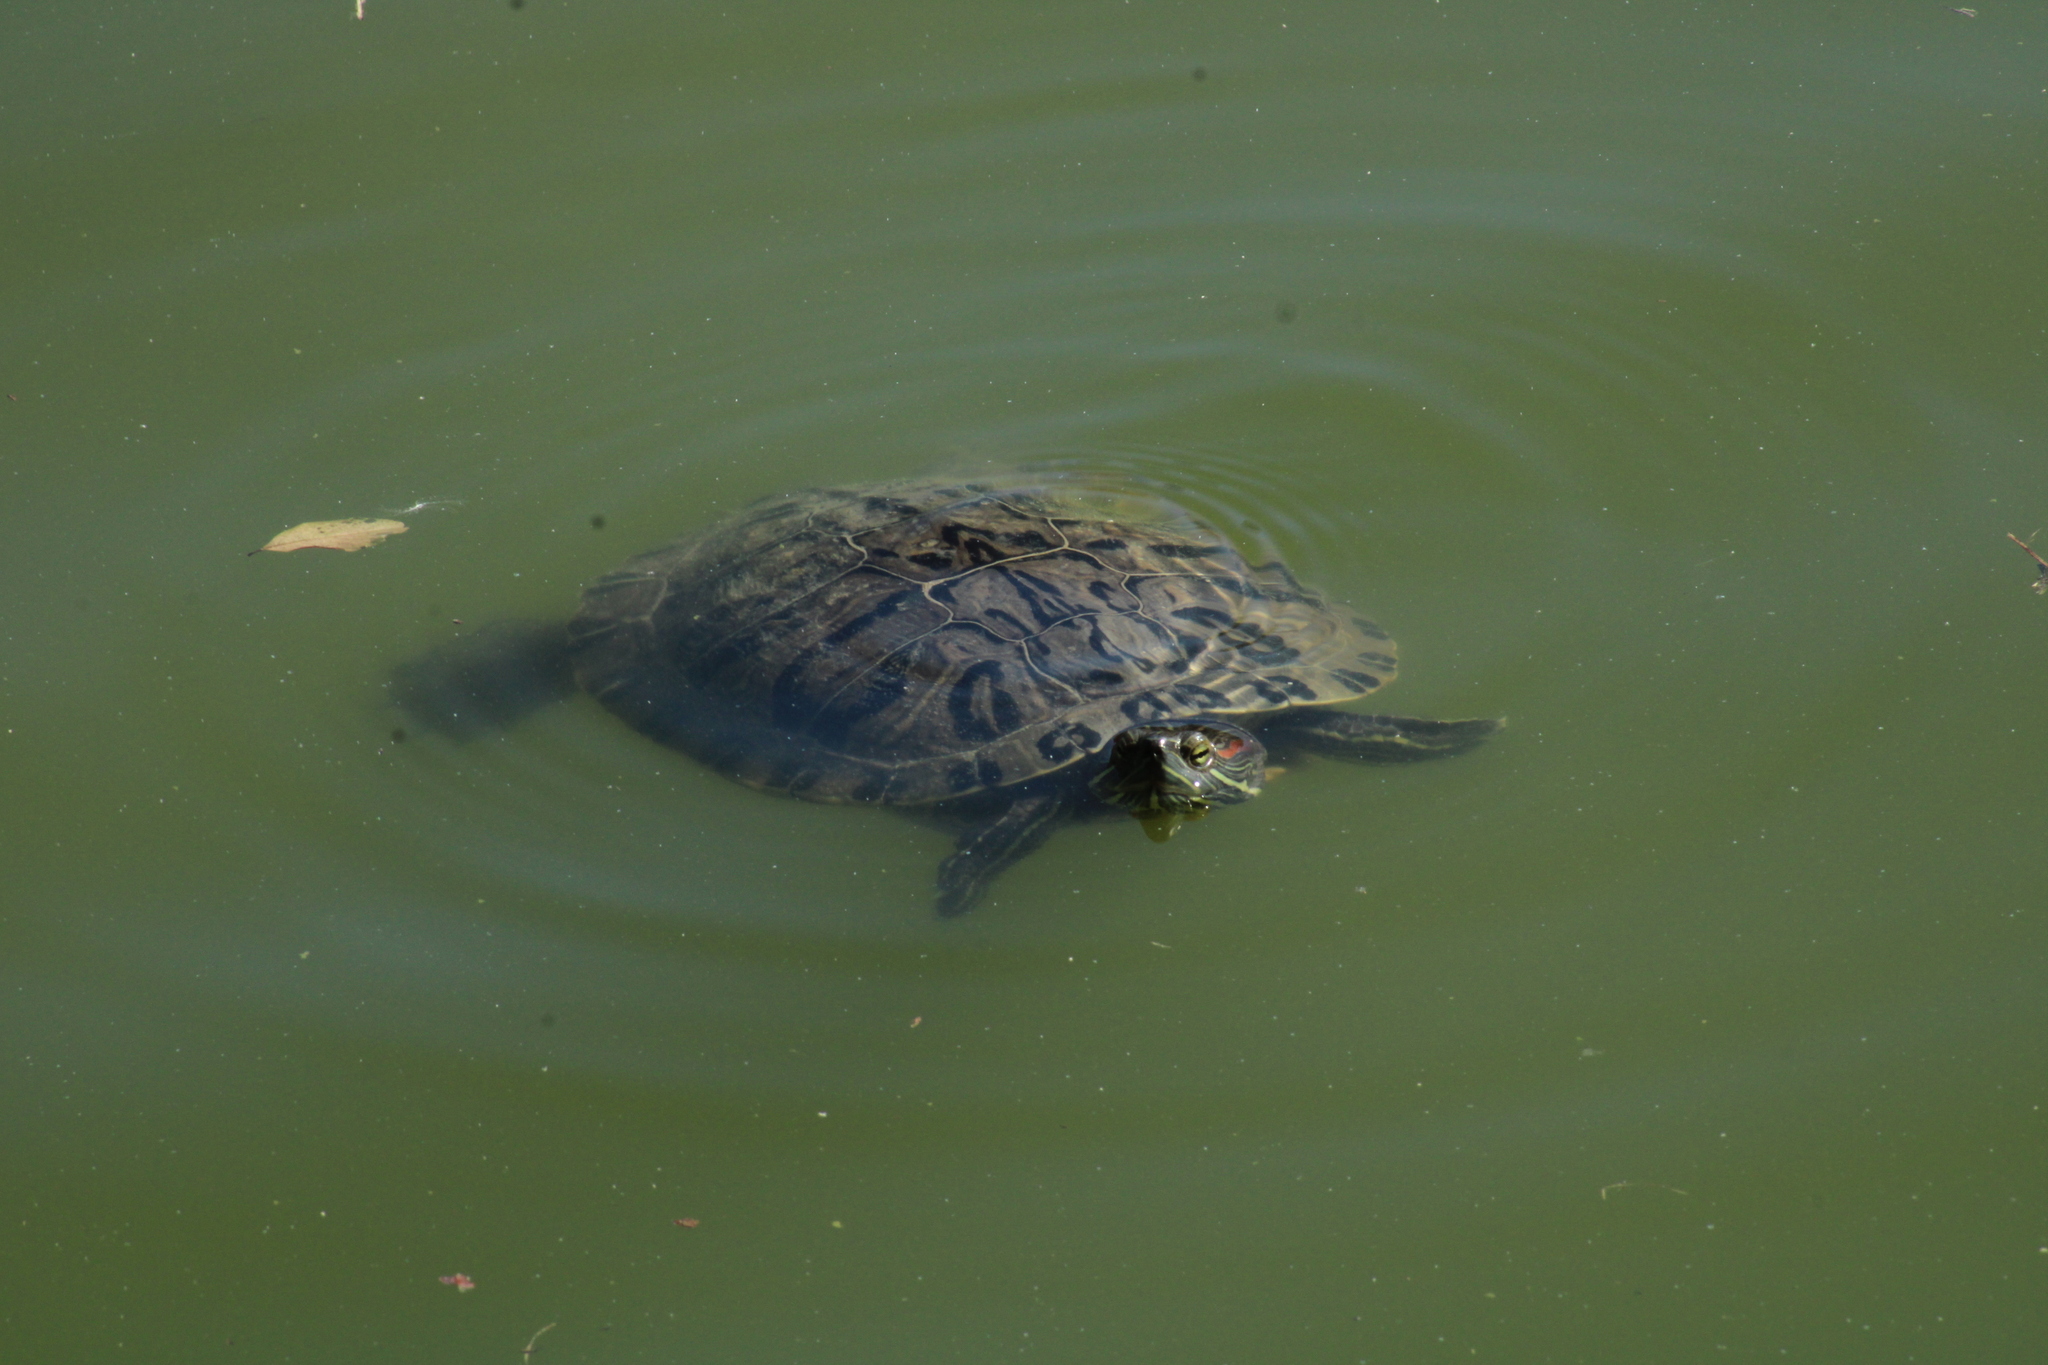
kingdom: Animalia
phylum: Chordata
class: Testudines
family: Emydidae
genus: Trachemys
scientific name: Trachemys scripta
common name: Slider
